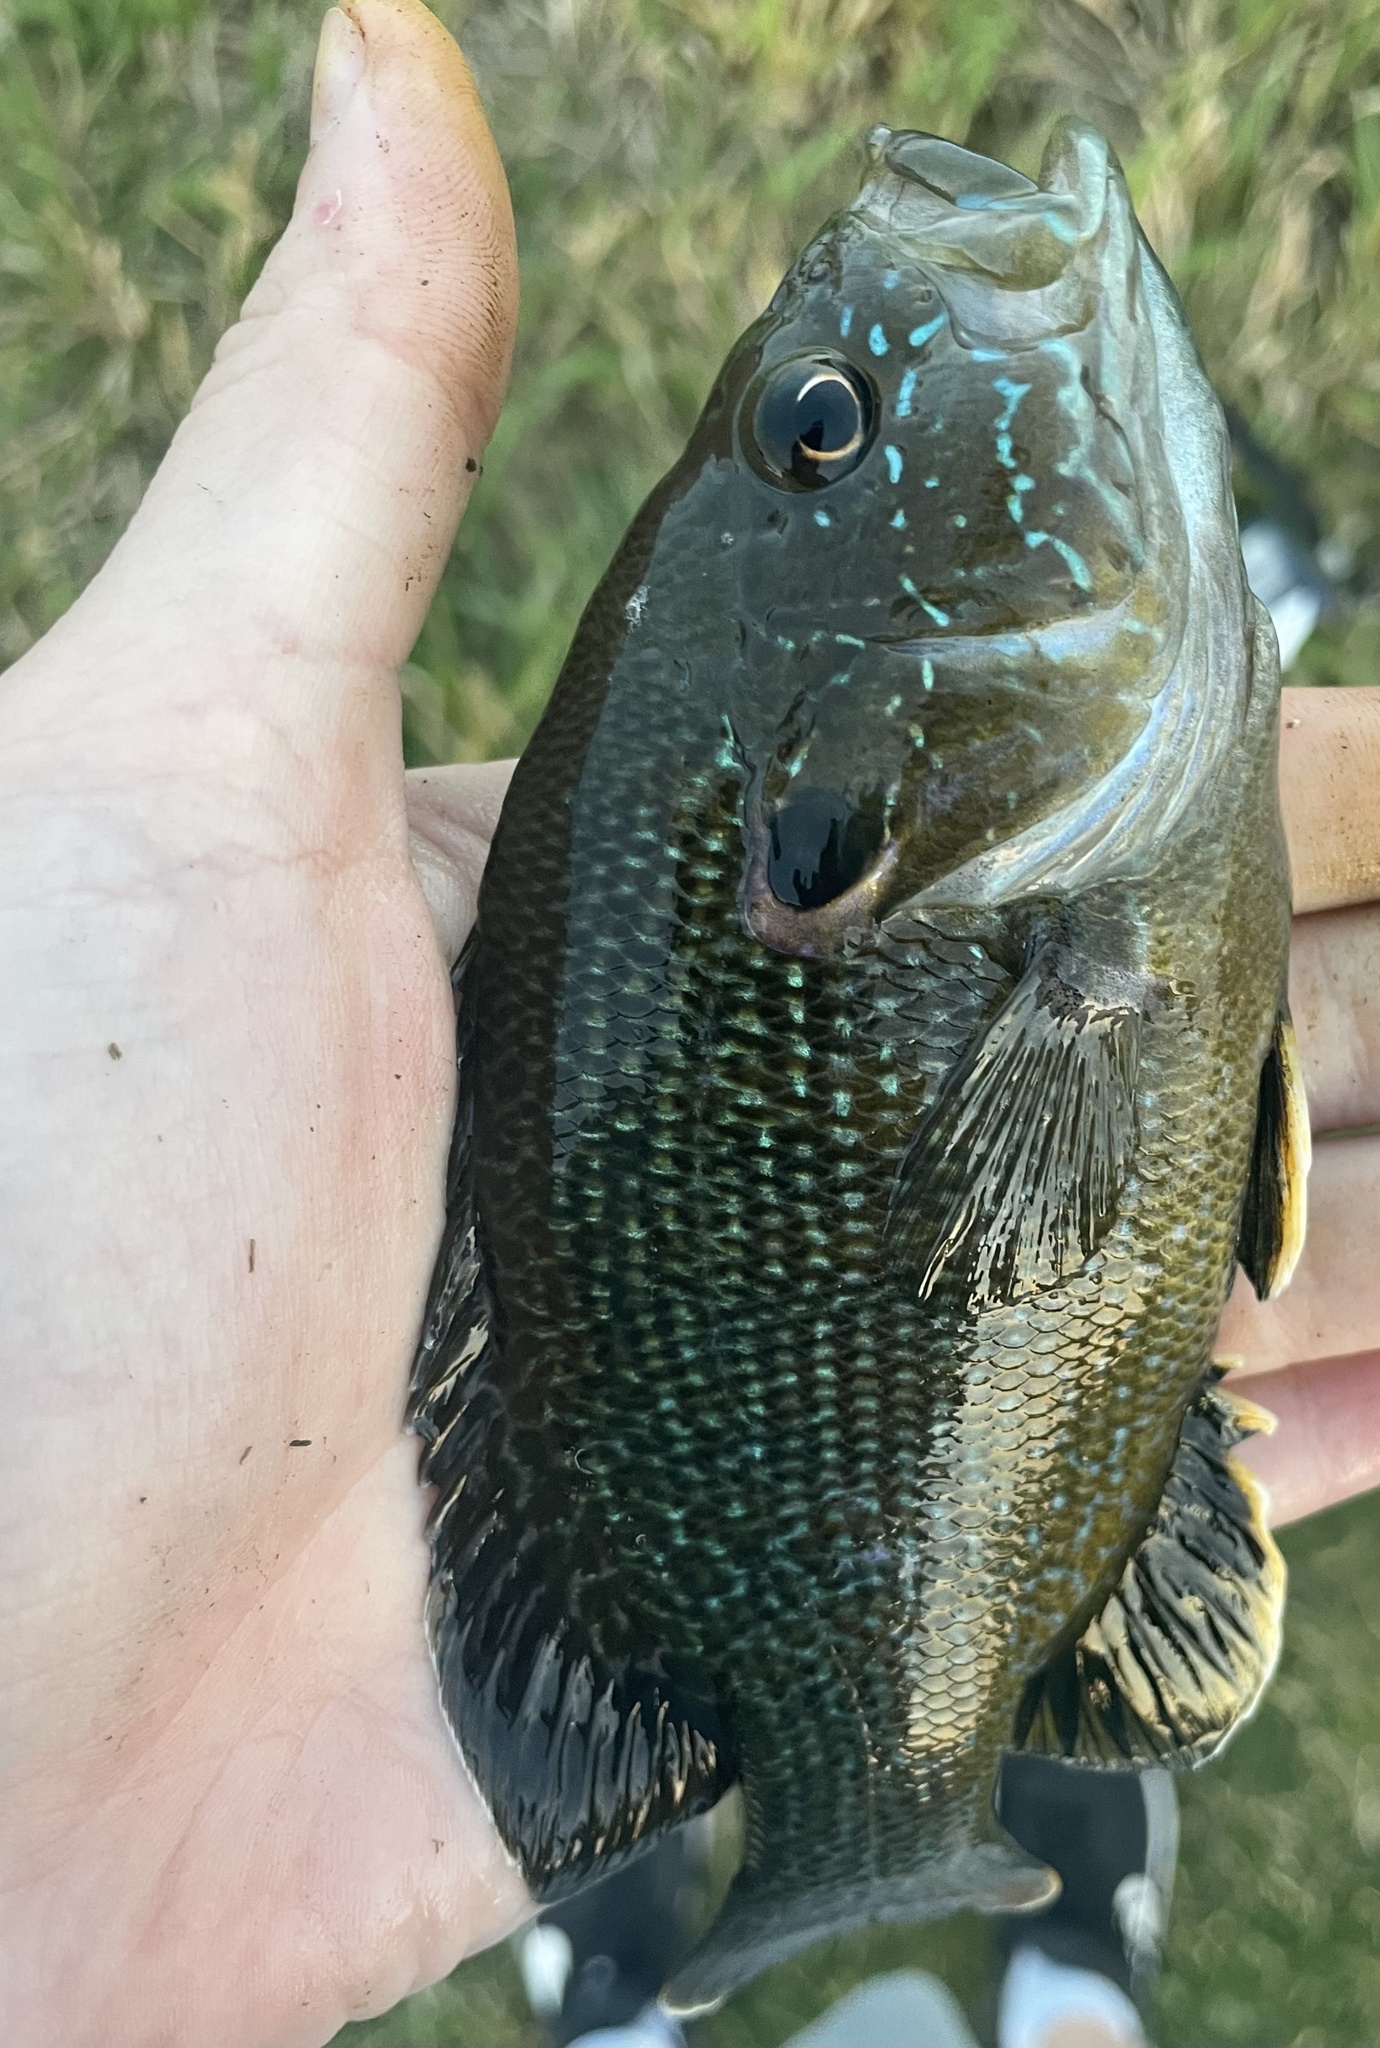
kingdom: Animalia
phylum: Chordata
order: Perciformes
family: Centrarchidae
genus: Lepomis
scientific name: Lepomis cyanellus
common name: Green sunfish
